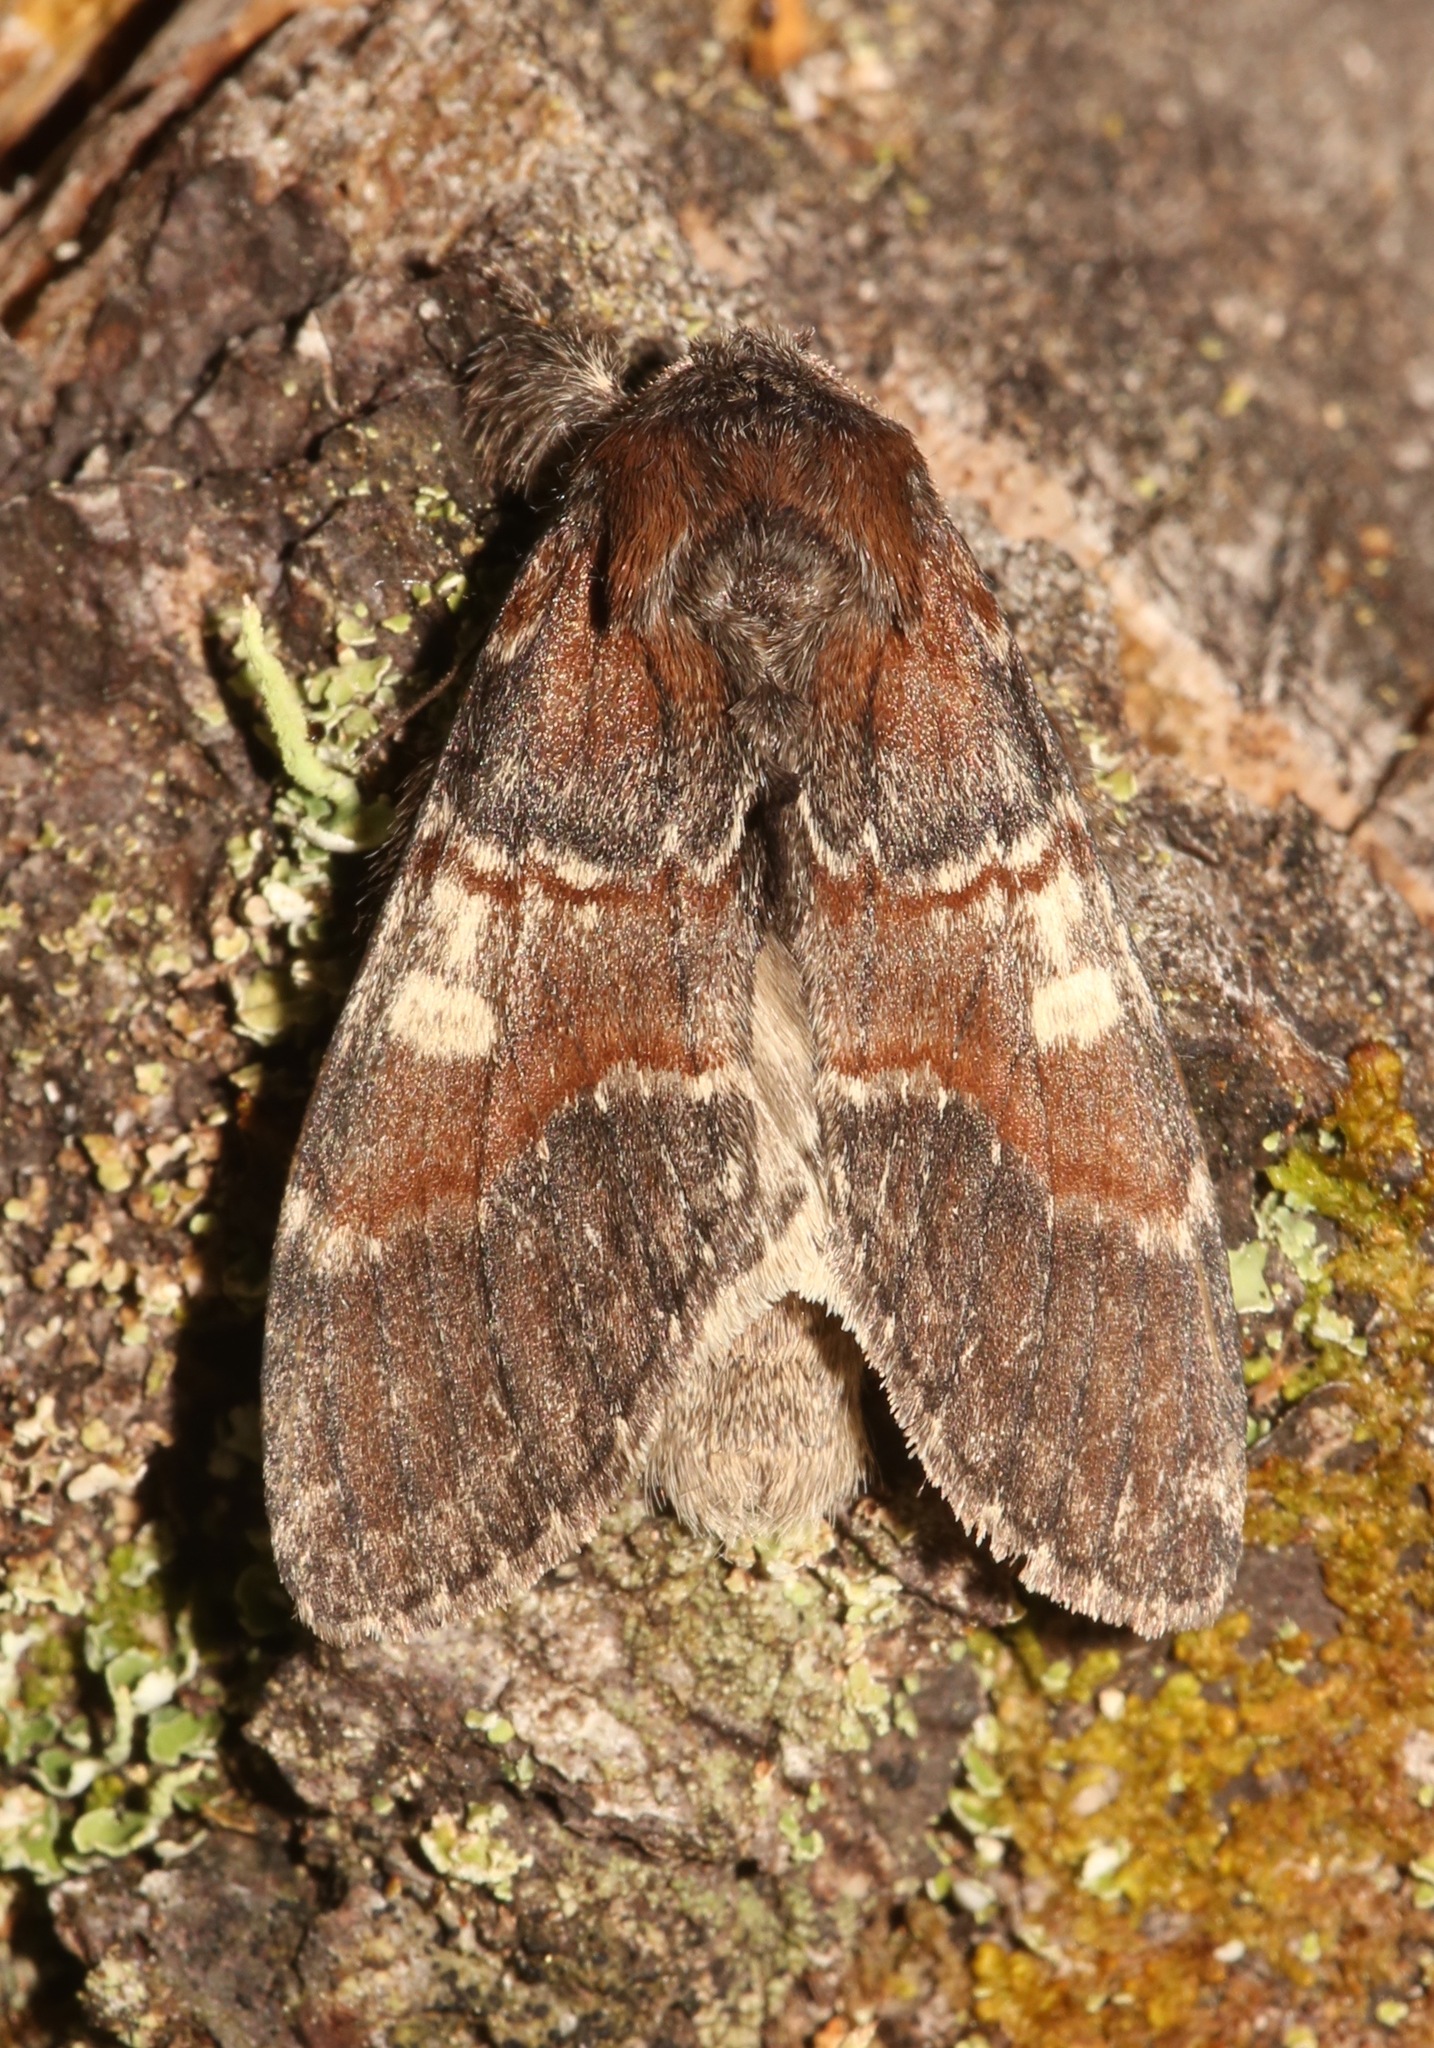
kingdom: Animalia
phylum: Arthropoda
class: Insecta
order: Lepidoptera
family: Notodontidae
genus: Peridea
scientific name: Peridea ferruginea
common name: Chocolate prominent
